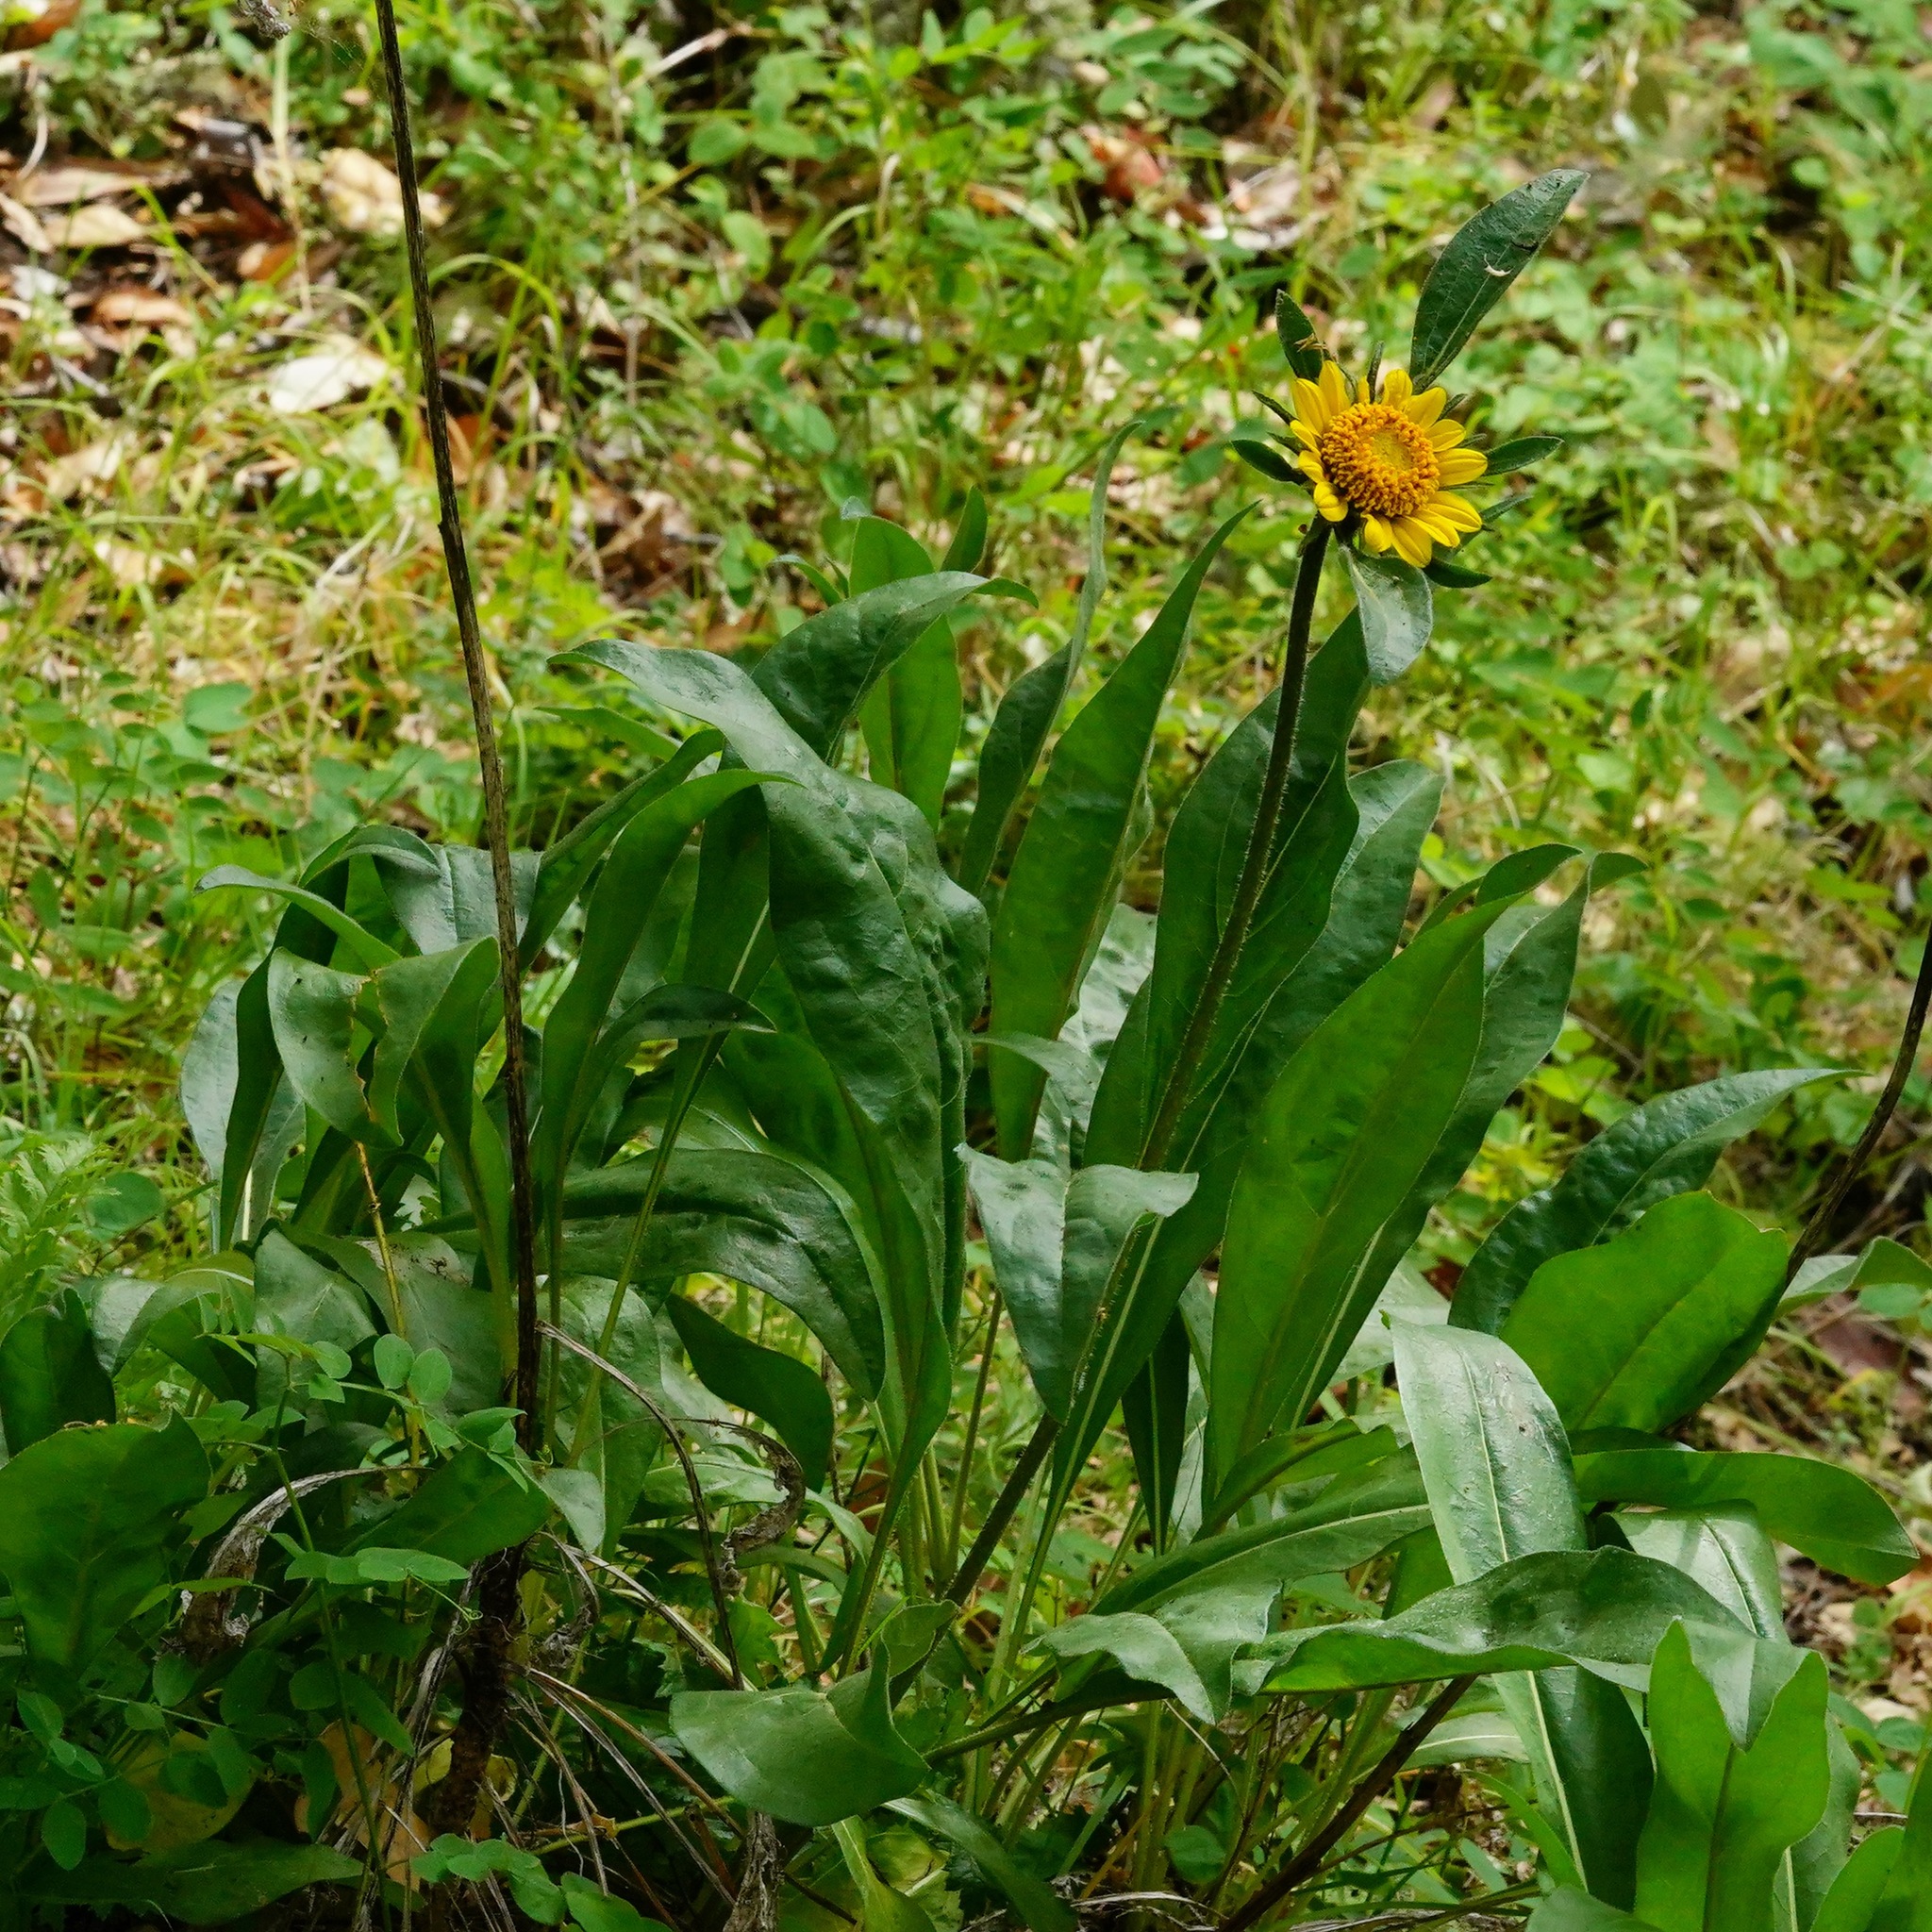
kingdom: Plantae
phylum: Tracheophyta
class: Magnoliopsida
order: Asterales
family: Asteraceae
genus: Helianthella
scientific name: Helianthella castanea
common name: Diablo helianthella
